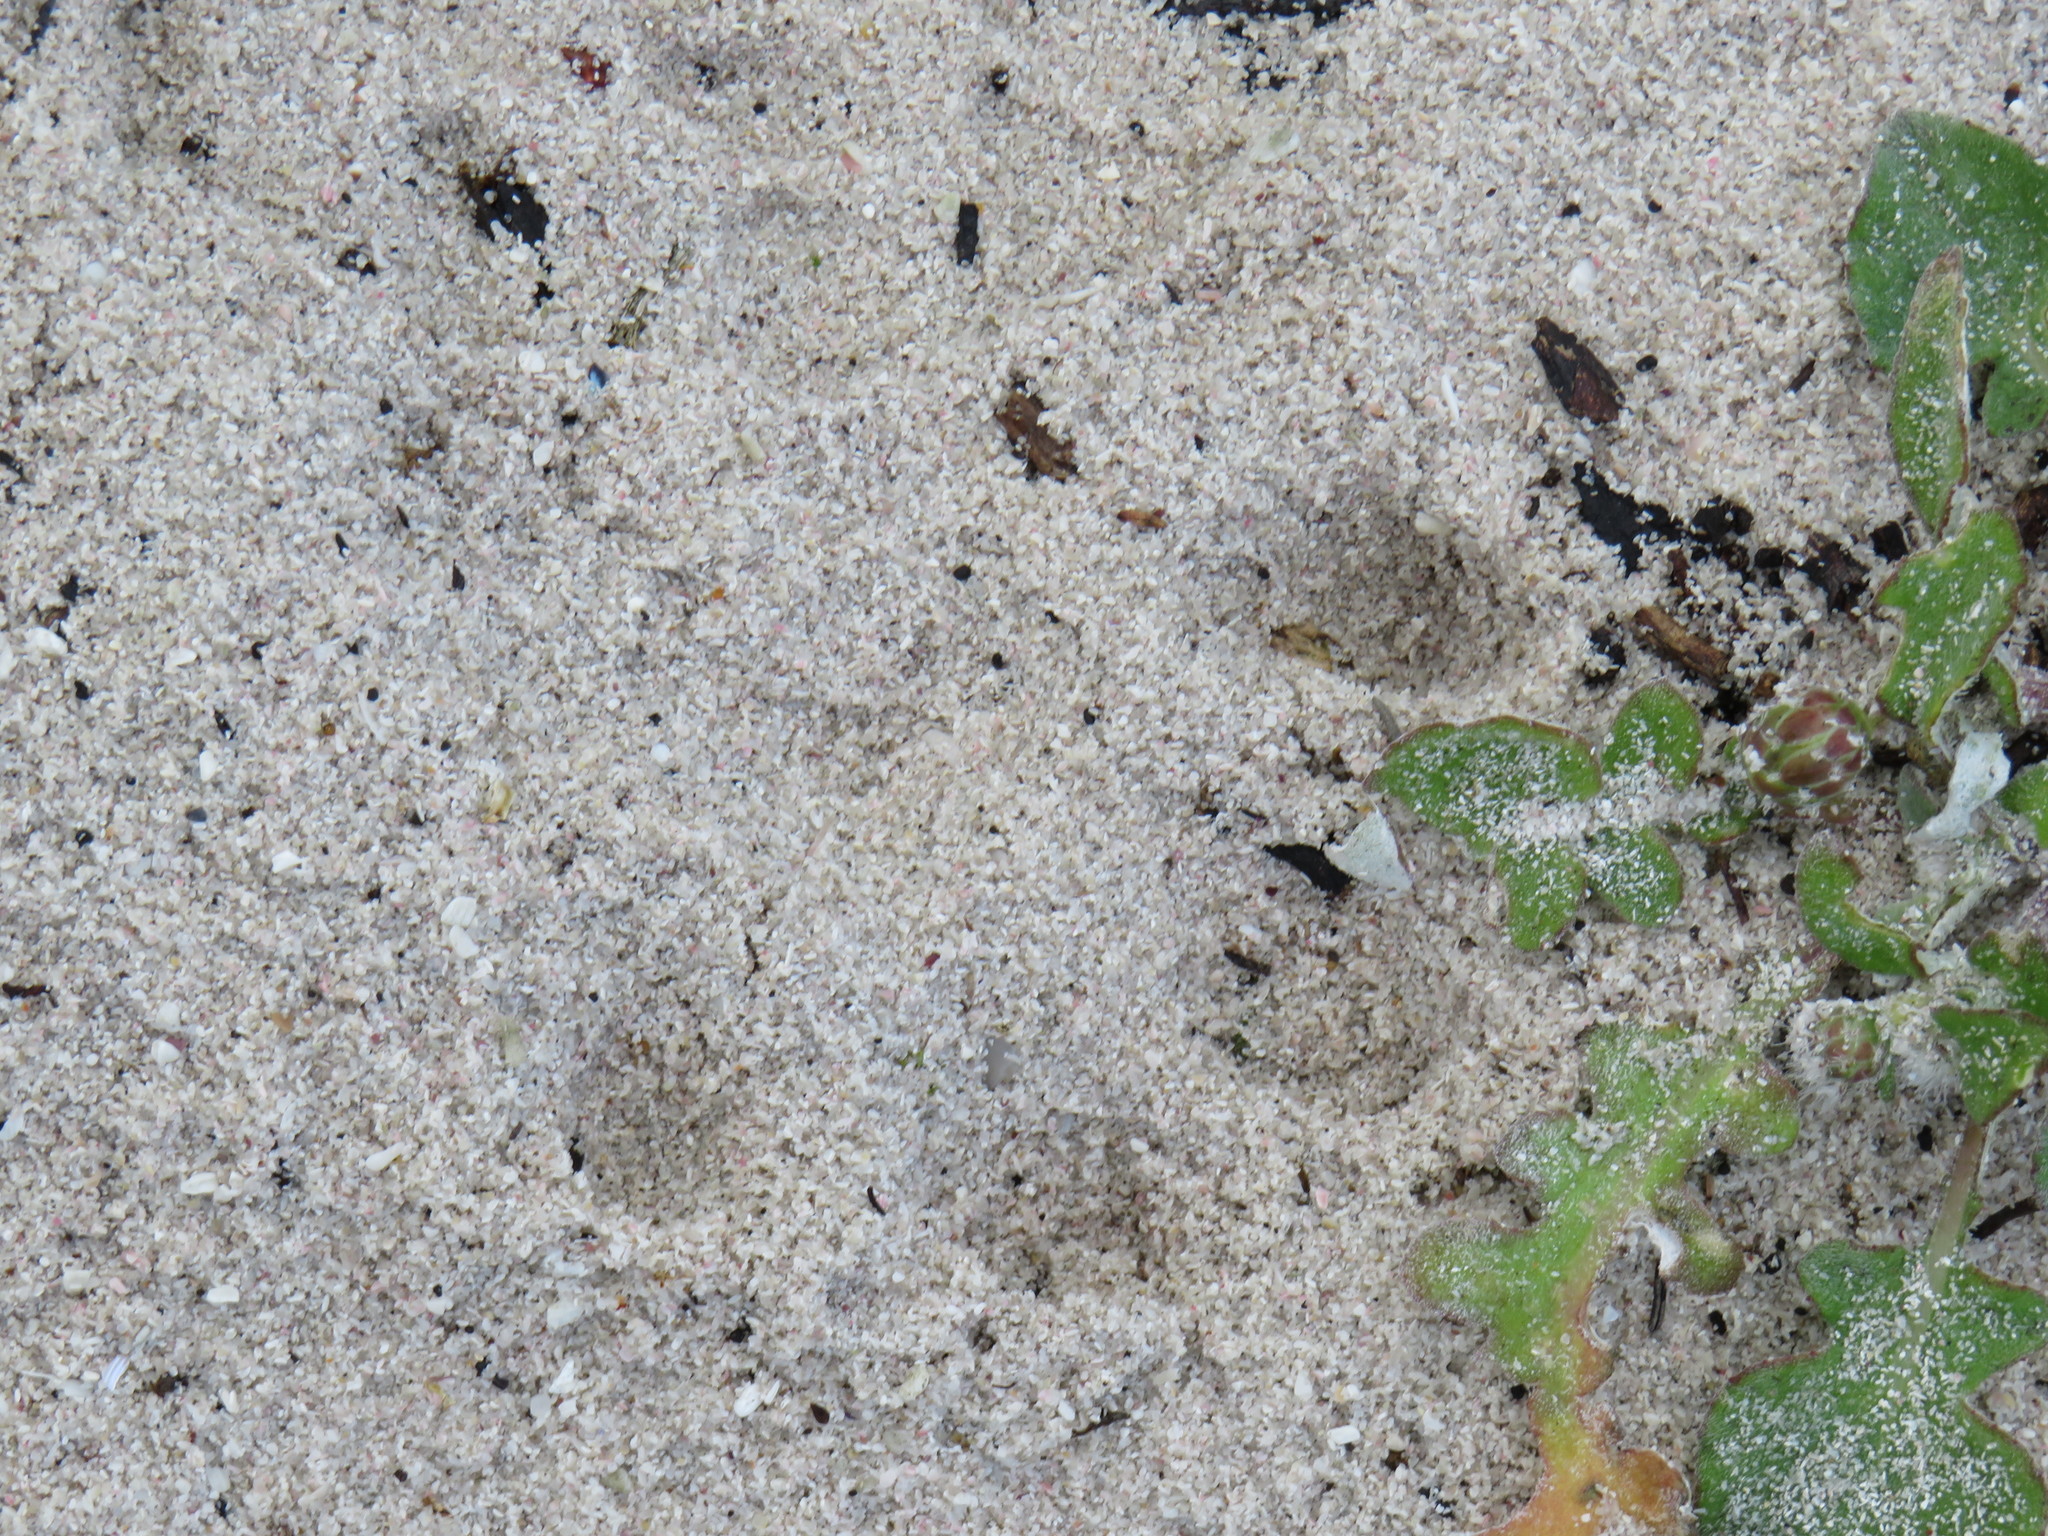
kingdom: Animalia
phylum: Chordata
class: Mammalia
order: Carnivora
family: Mustelidae
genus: Aonyx
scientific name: Aonyx capensis
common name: African clawless otter
